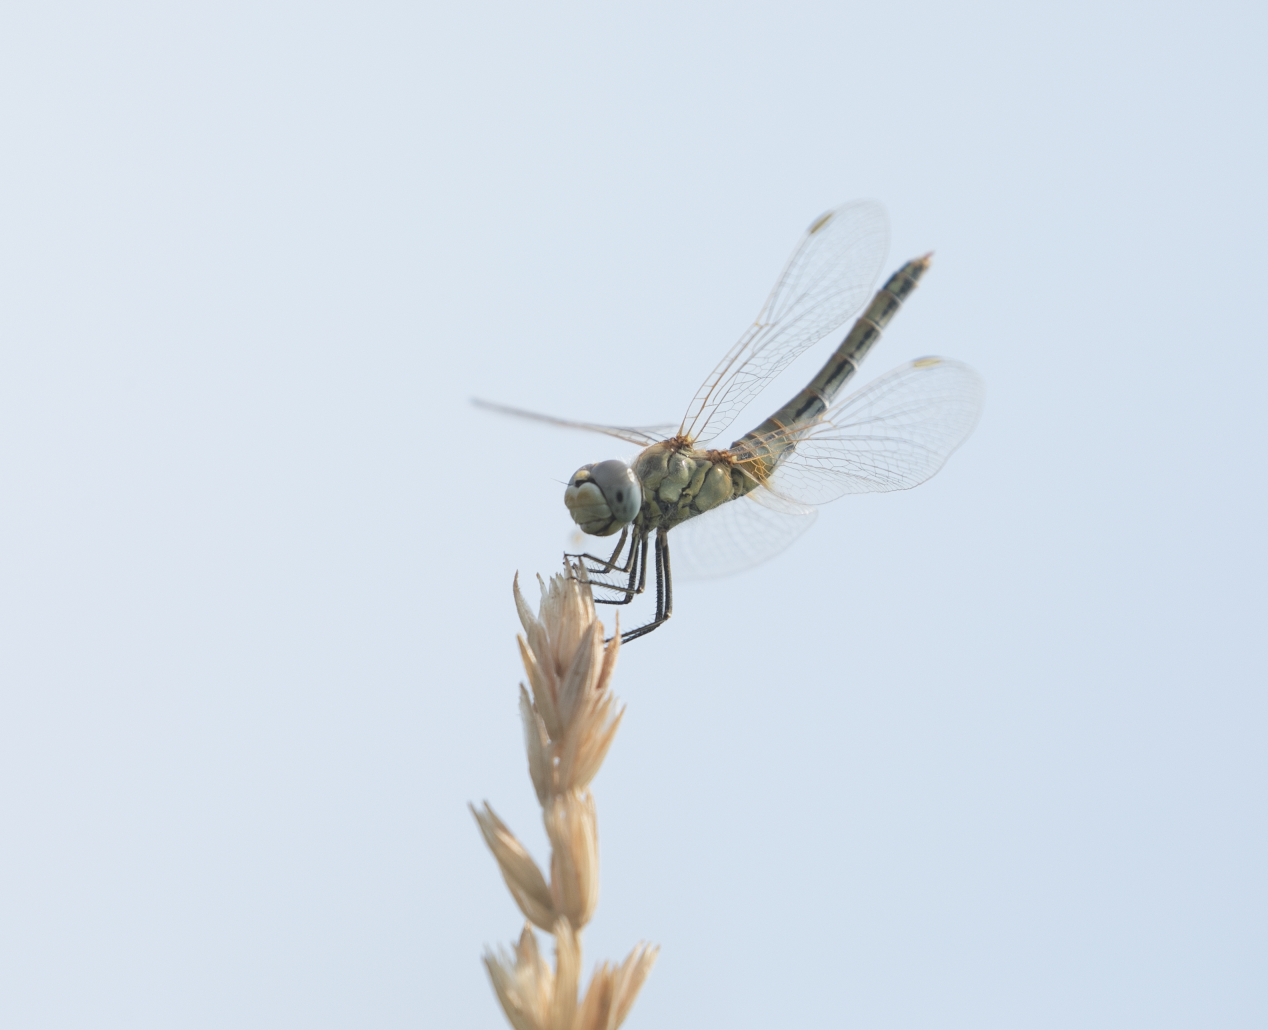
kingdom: Animalia
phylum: Arthropoda
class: Insecta
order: Odonata
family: Libellulidae
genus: Sympetrum
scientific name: Sympetrum fonscolombii
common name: Red-veined darter
